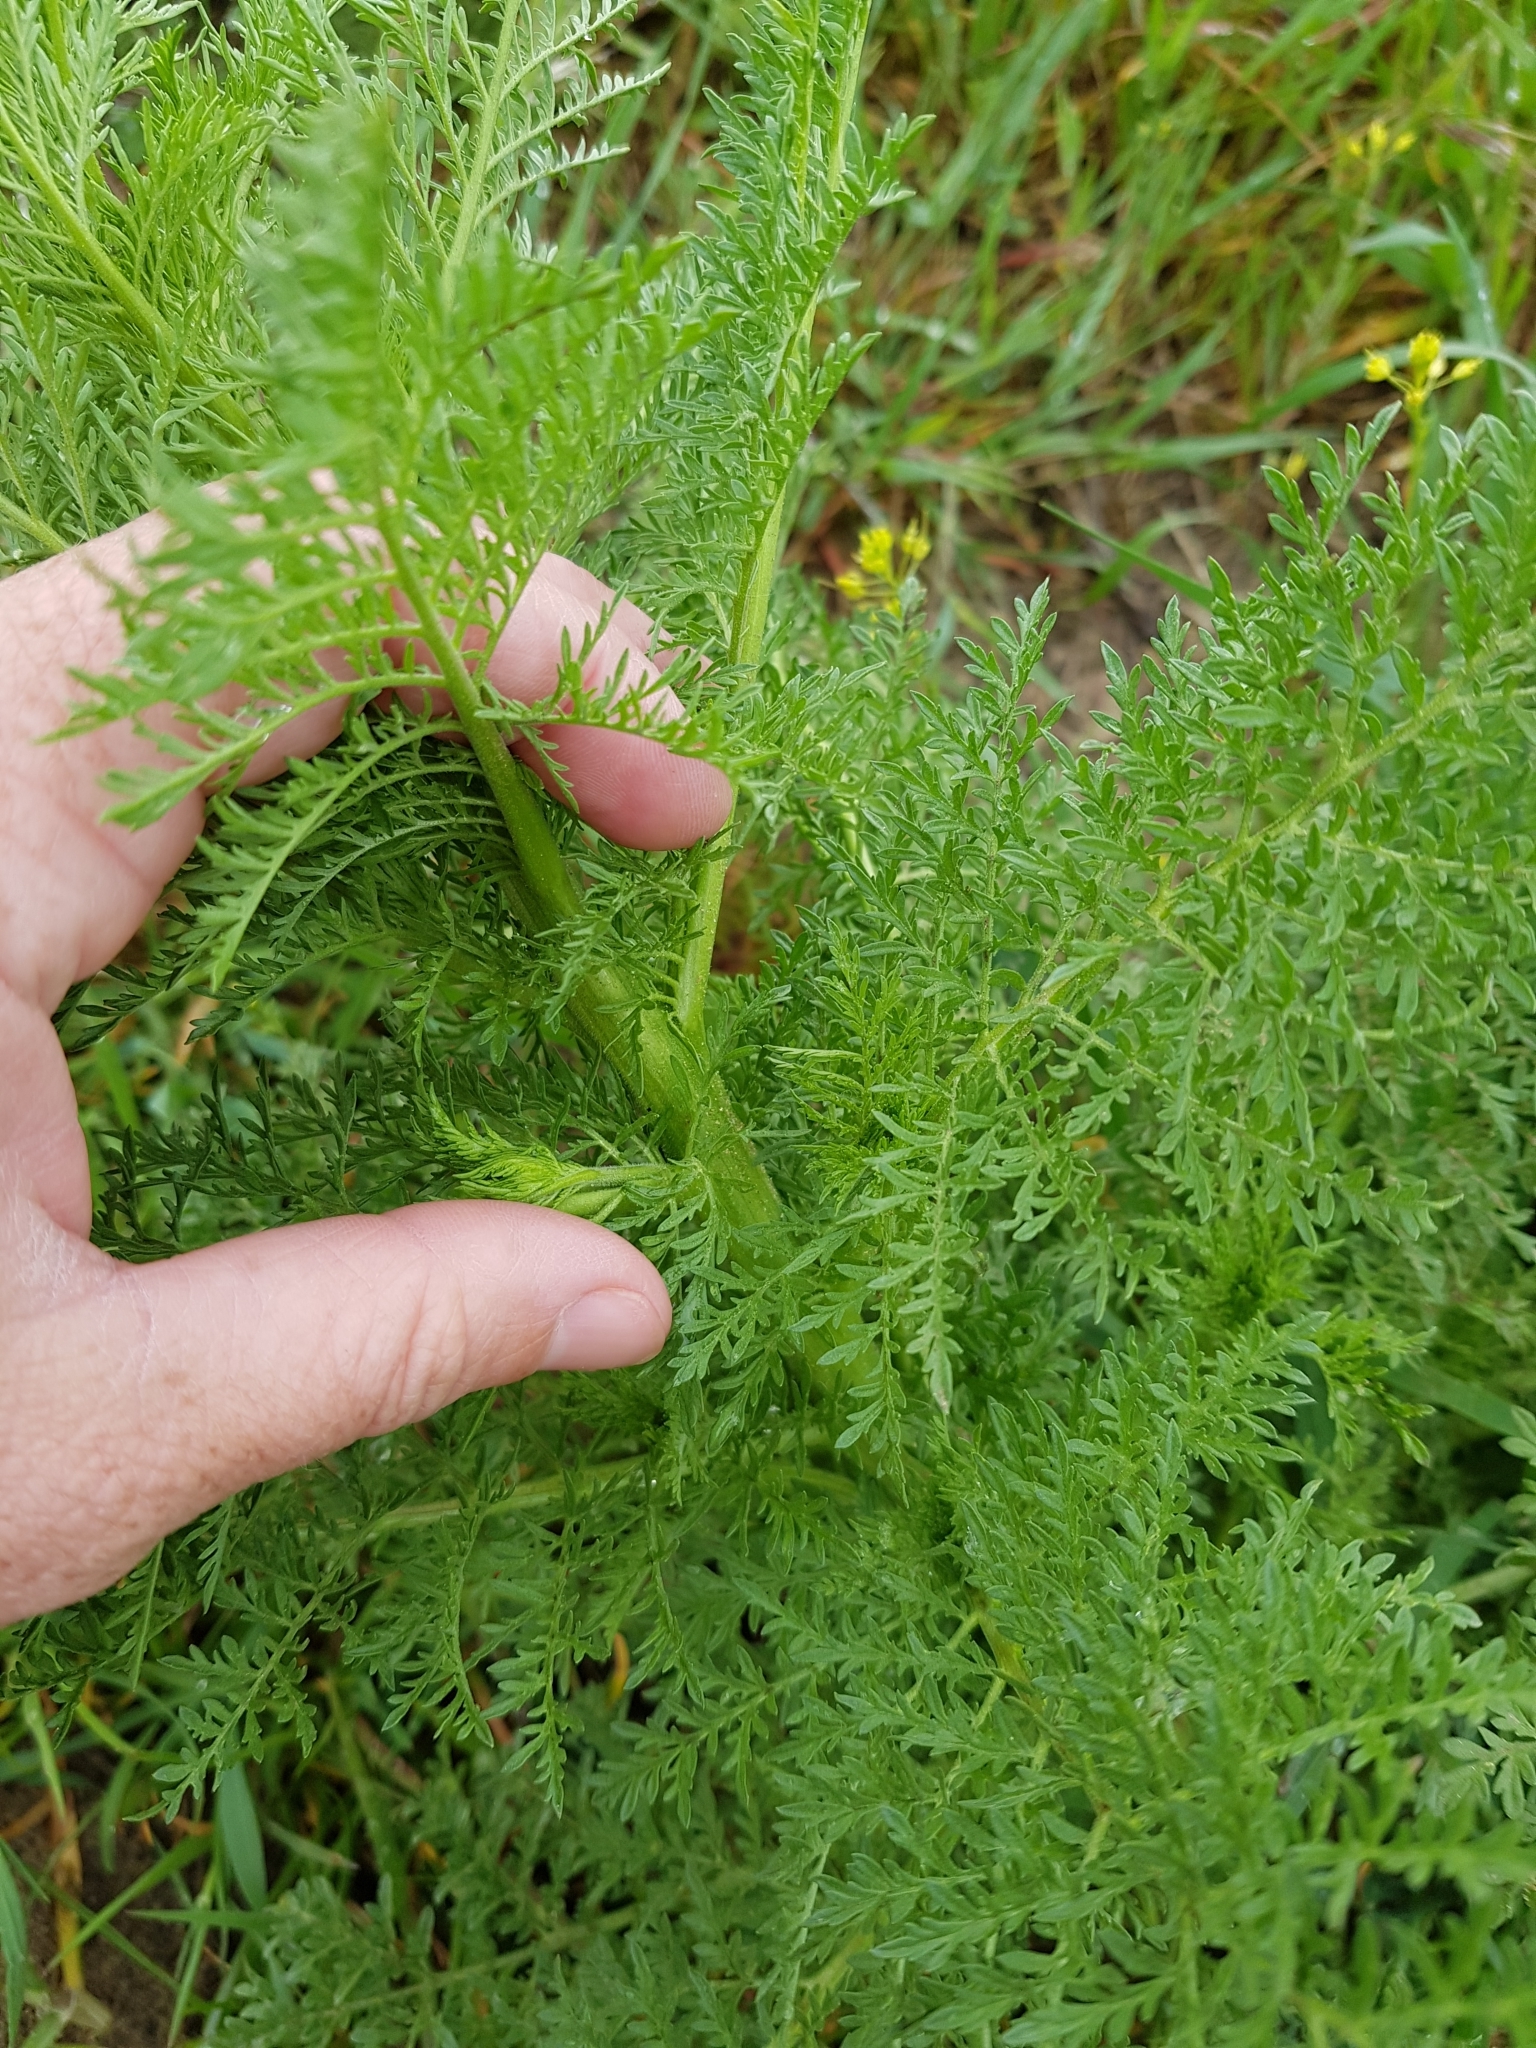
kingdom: Plantae
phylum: Tracheophyta
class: Magnoliopsida
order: Brassicales
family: Brassicaceae
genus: Descurainia
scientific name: Descurainia sophia
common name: Flixweed
